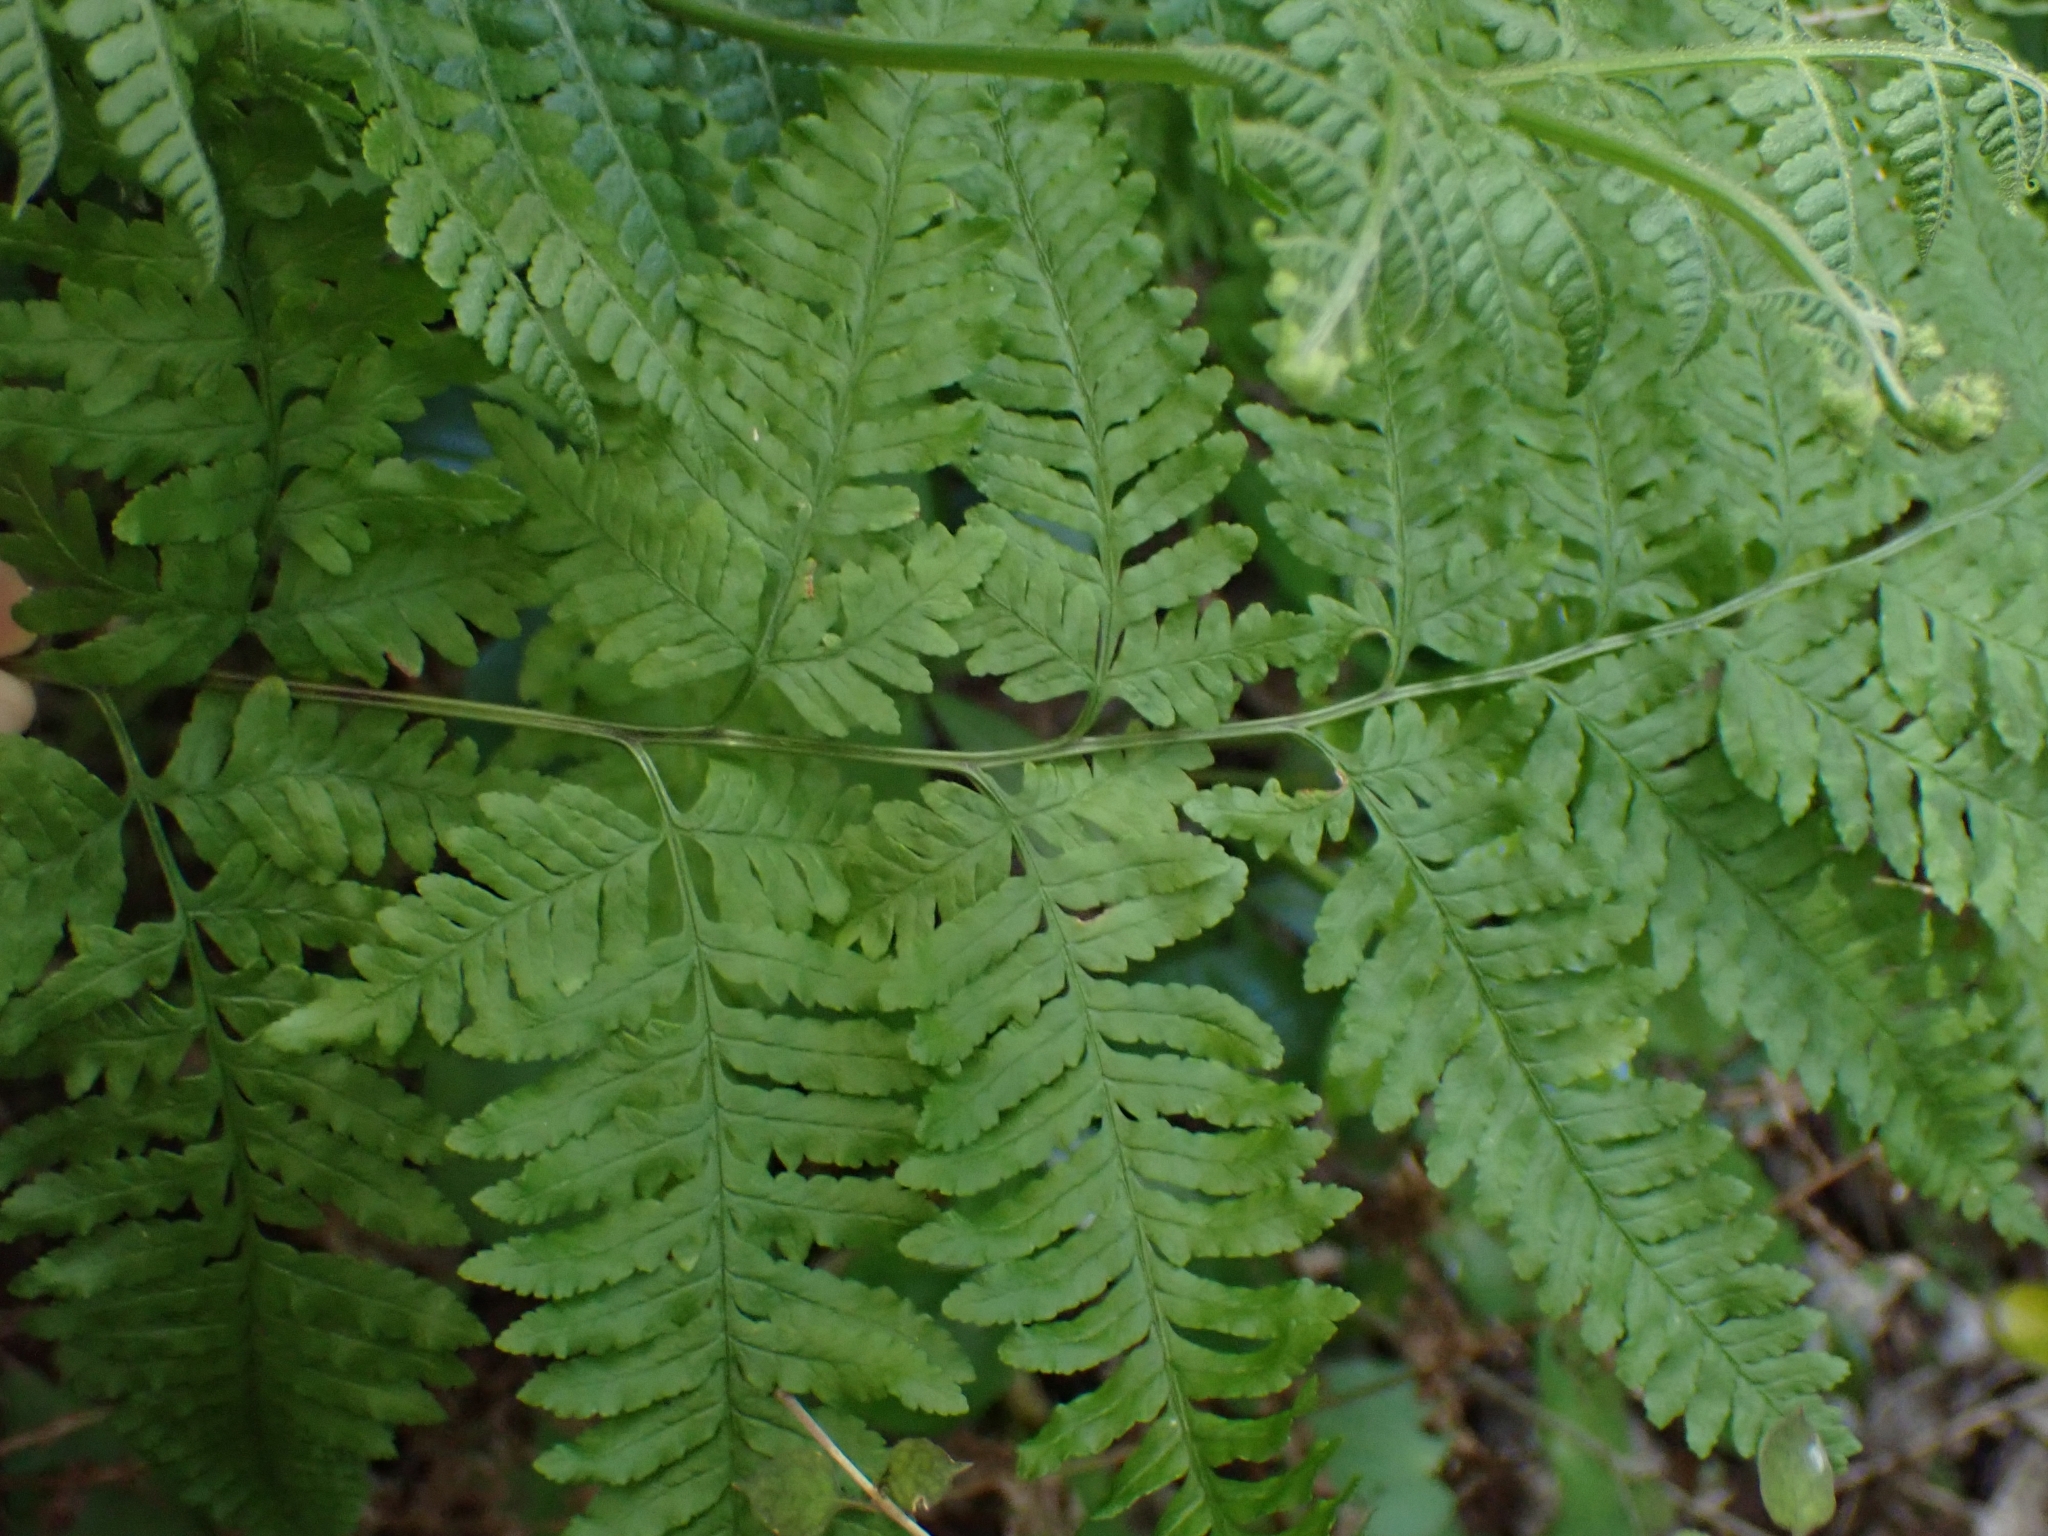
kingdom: Plantae
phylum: Tracheophyta
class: Polypodiopsida
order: Polypodiales
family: Pteridaceae
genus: Pteris
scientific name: Pteris tremula
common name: Australian brake
